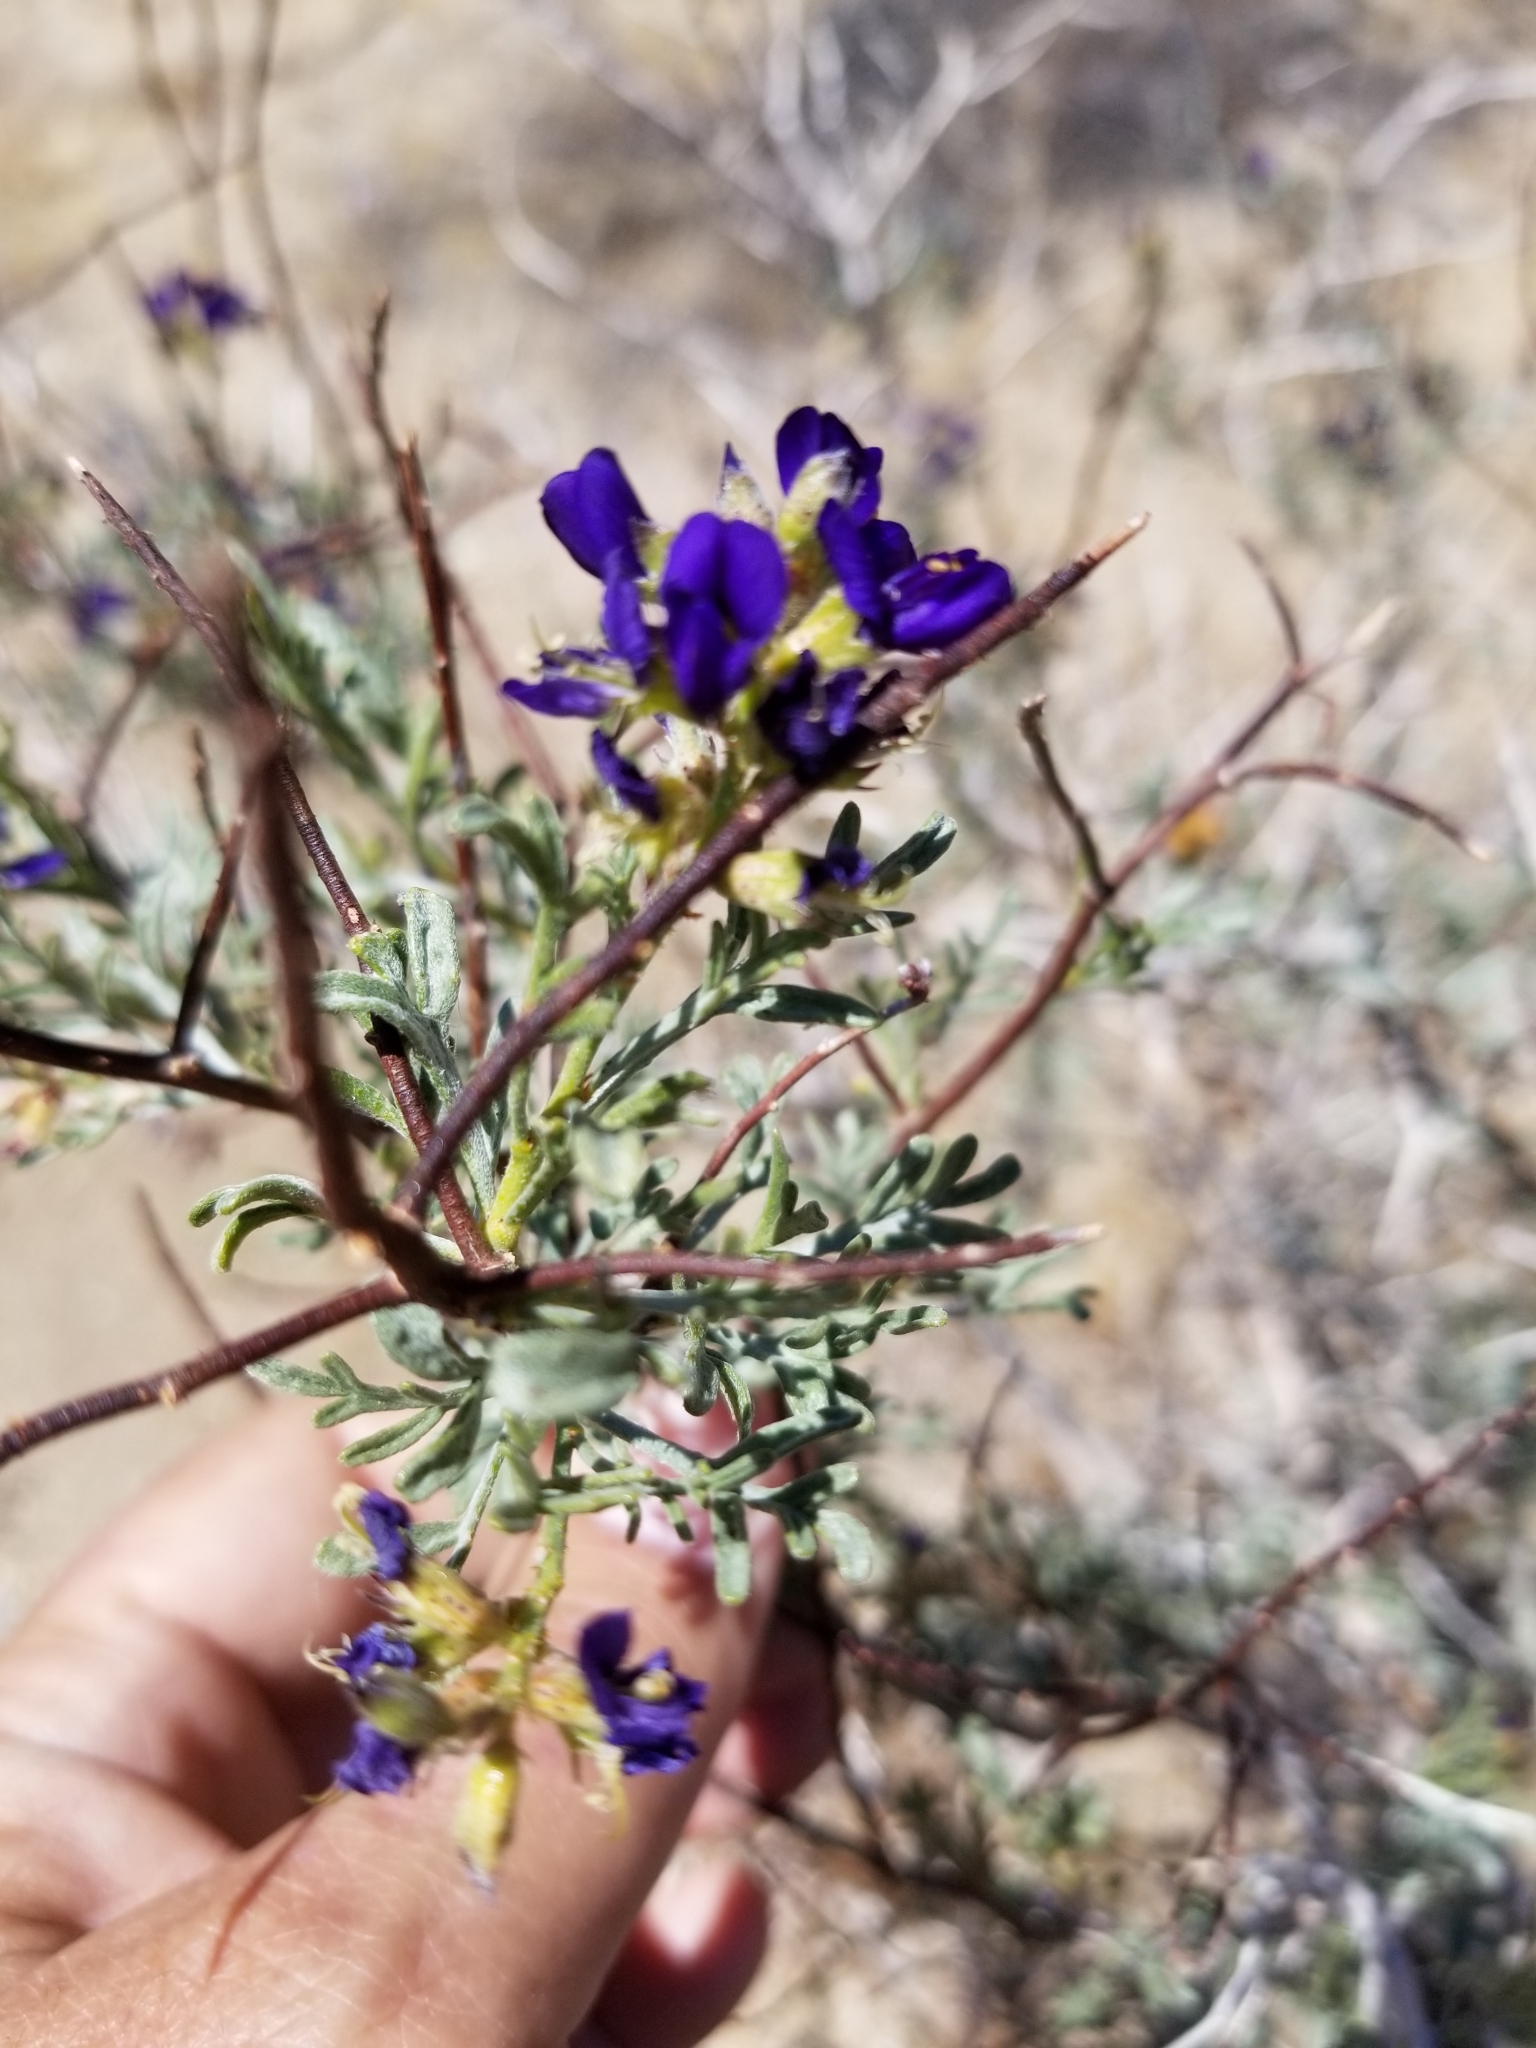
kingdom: Plantae
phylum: Tracheophyta
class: Magnoliopsida
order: Fabales
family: Fabaceae
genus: Psorothamnus
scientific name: Psorothamnus arborescens
